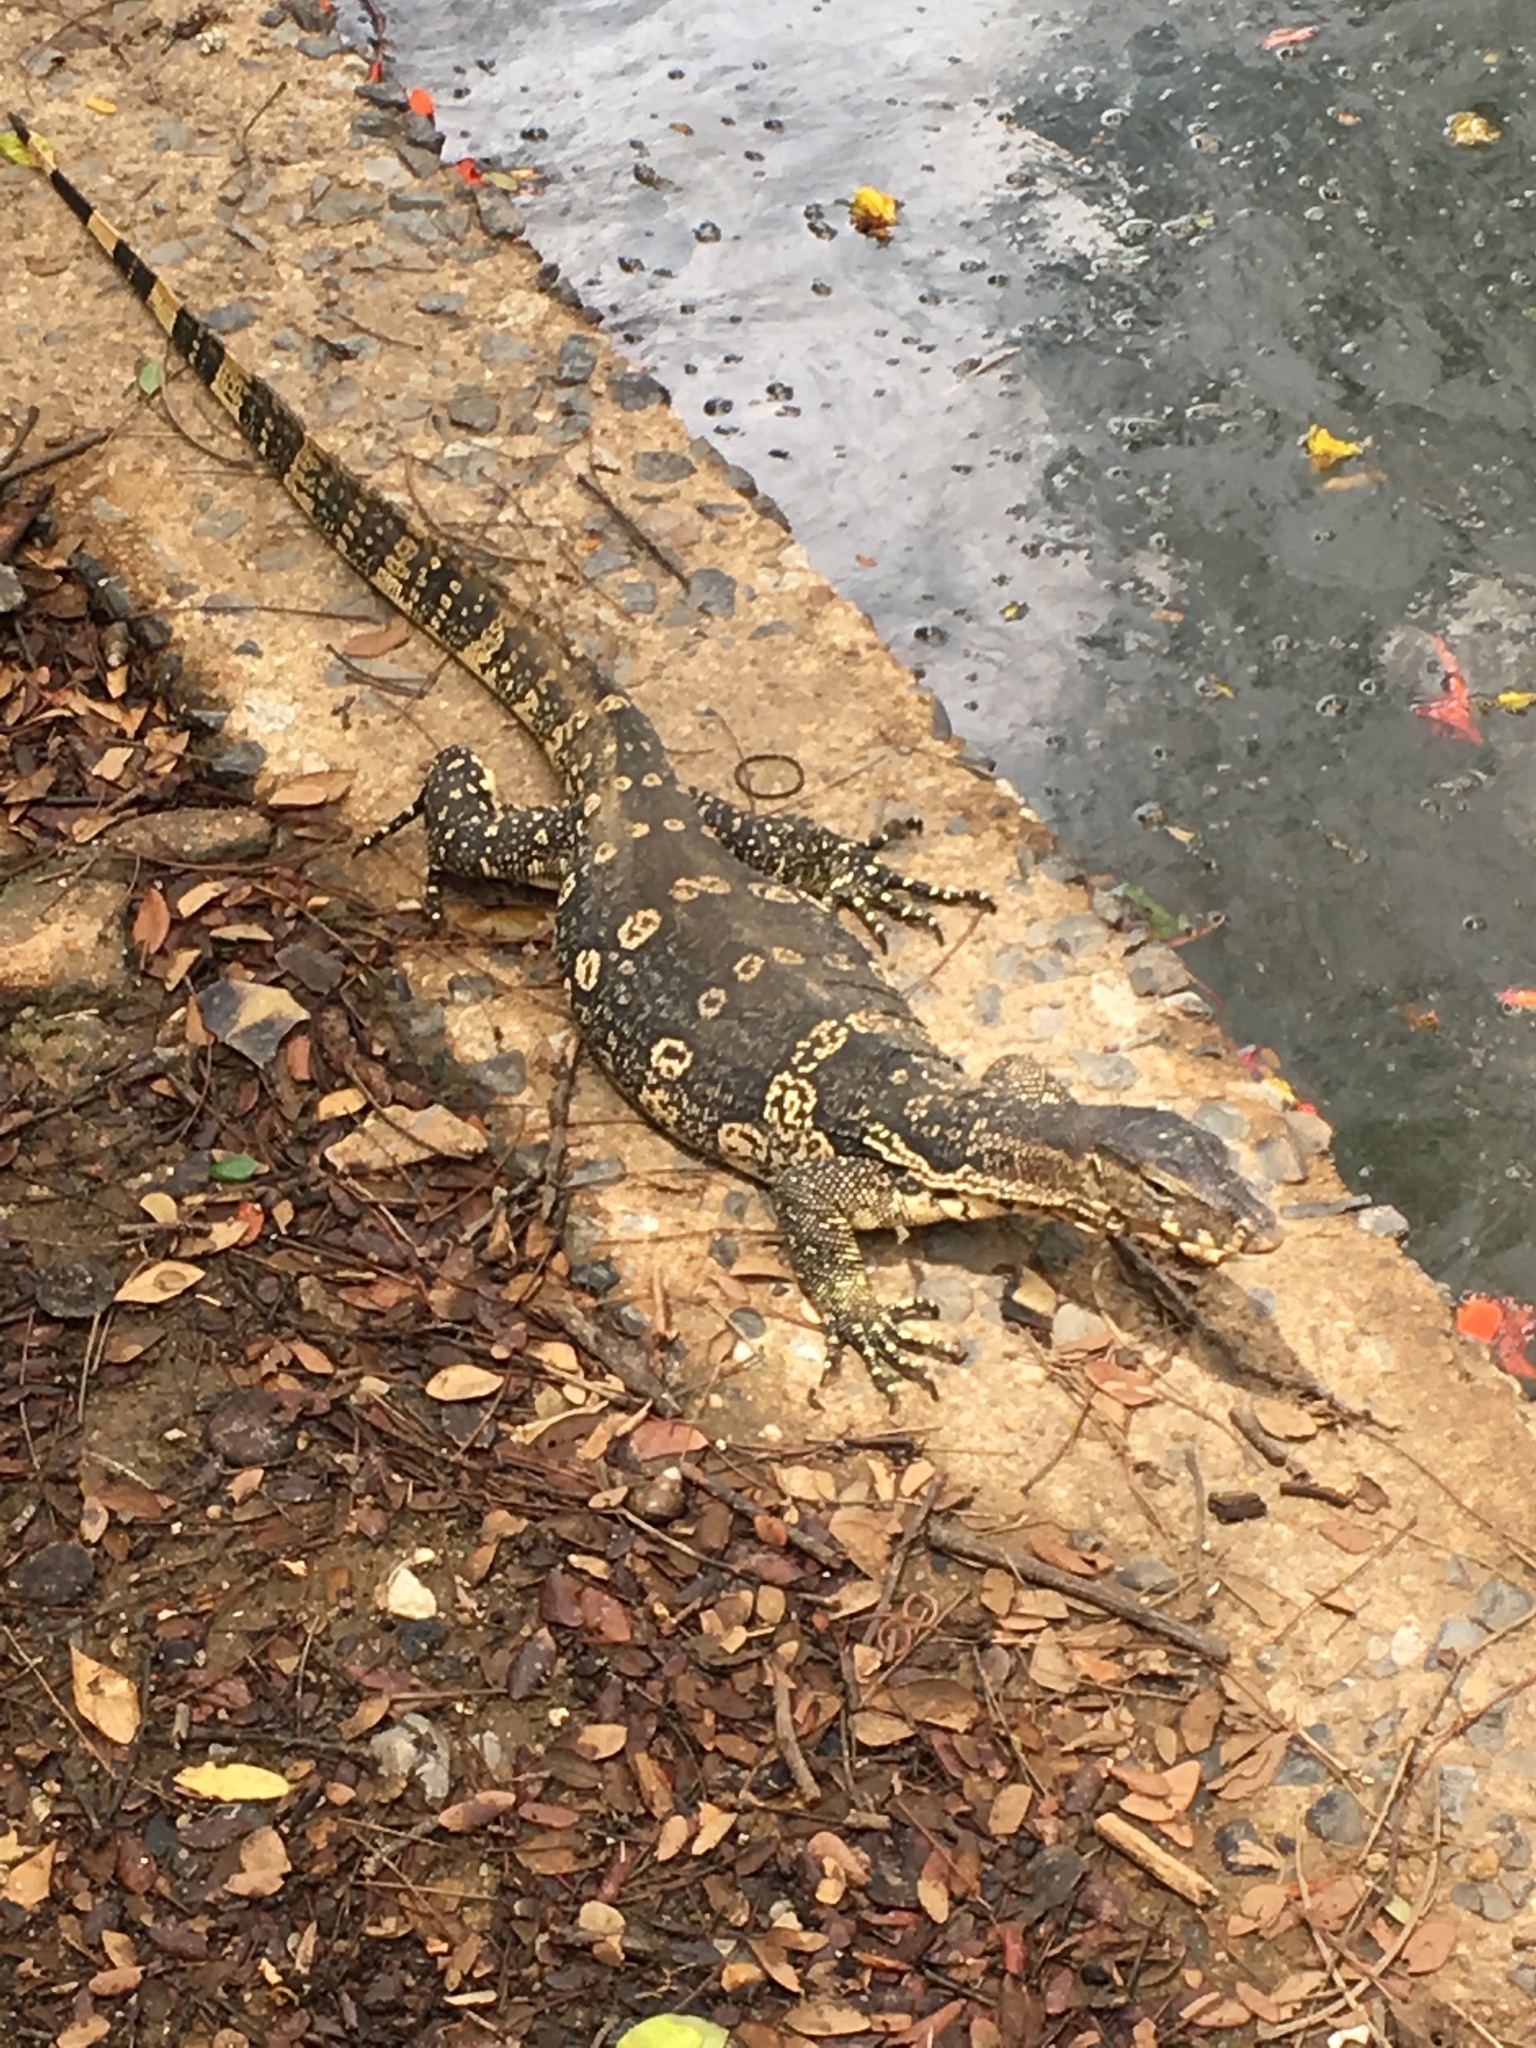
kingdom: Animalia
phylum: Chordata
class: Squamata
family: Varanidae
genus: Varanus
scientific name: Varanus salvator
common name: Common water monitor
